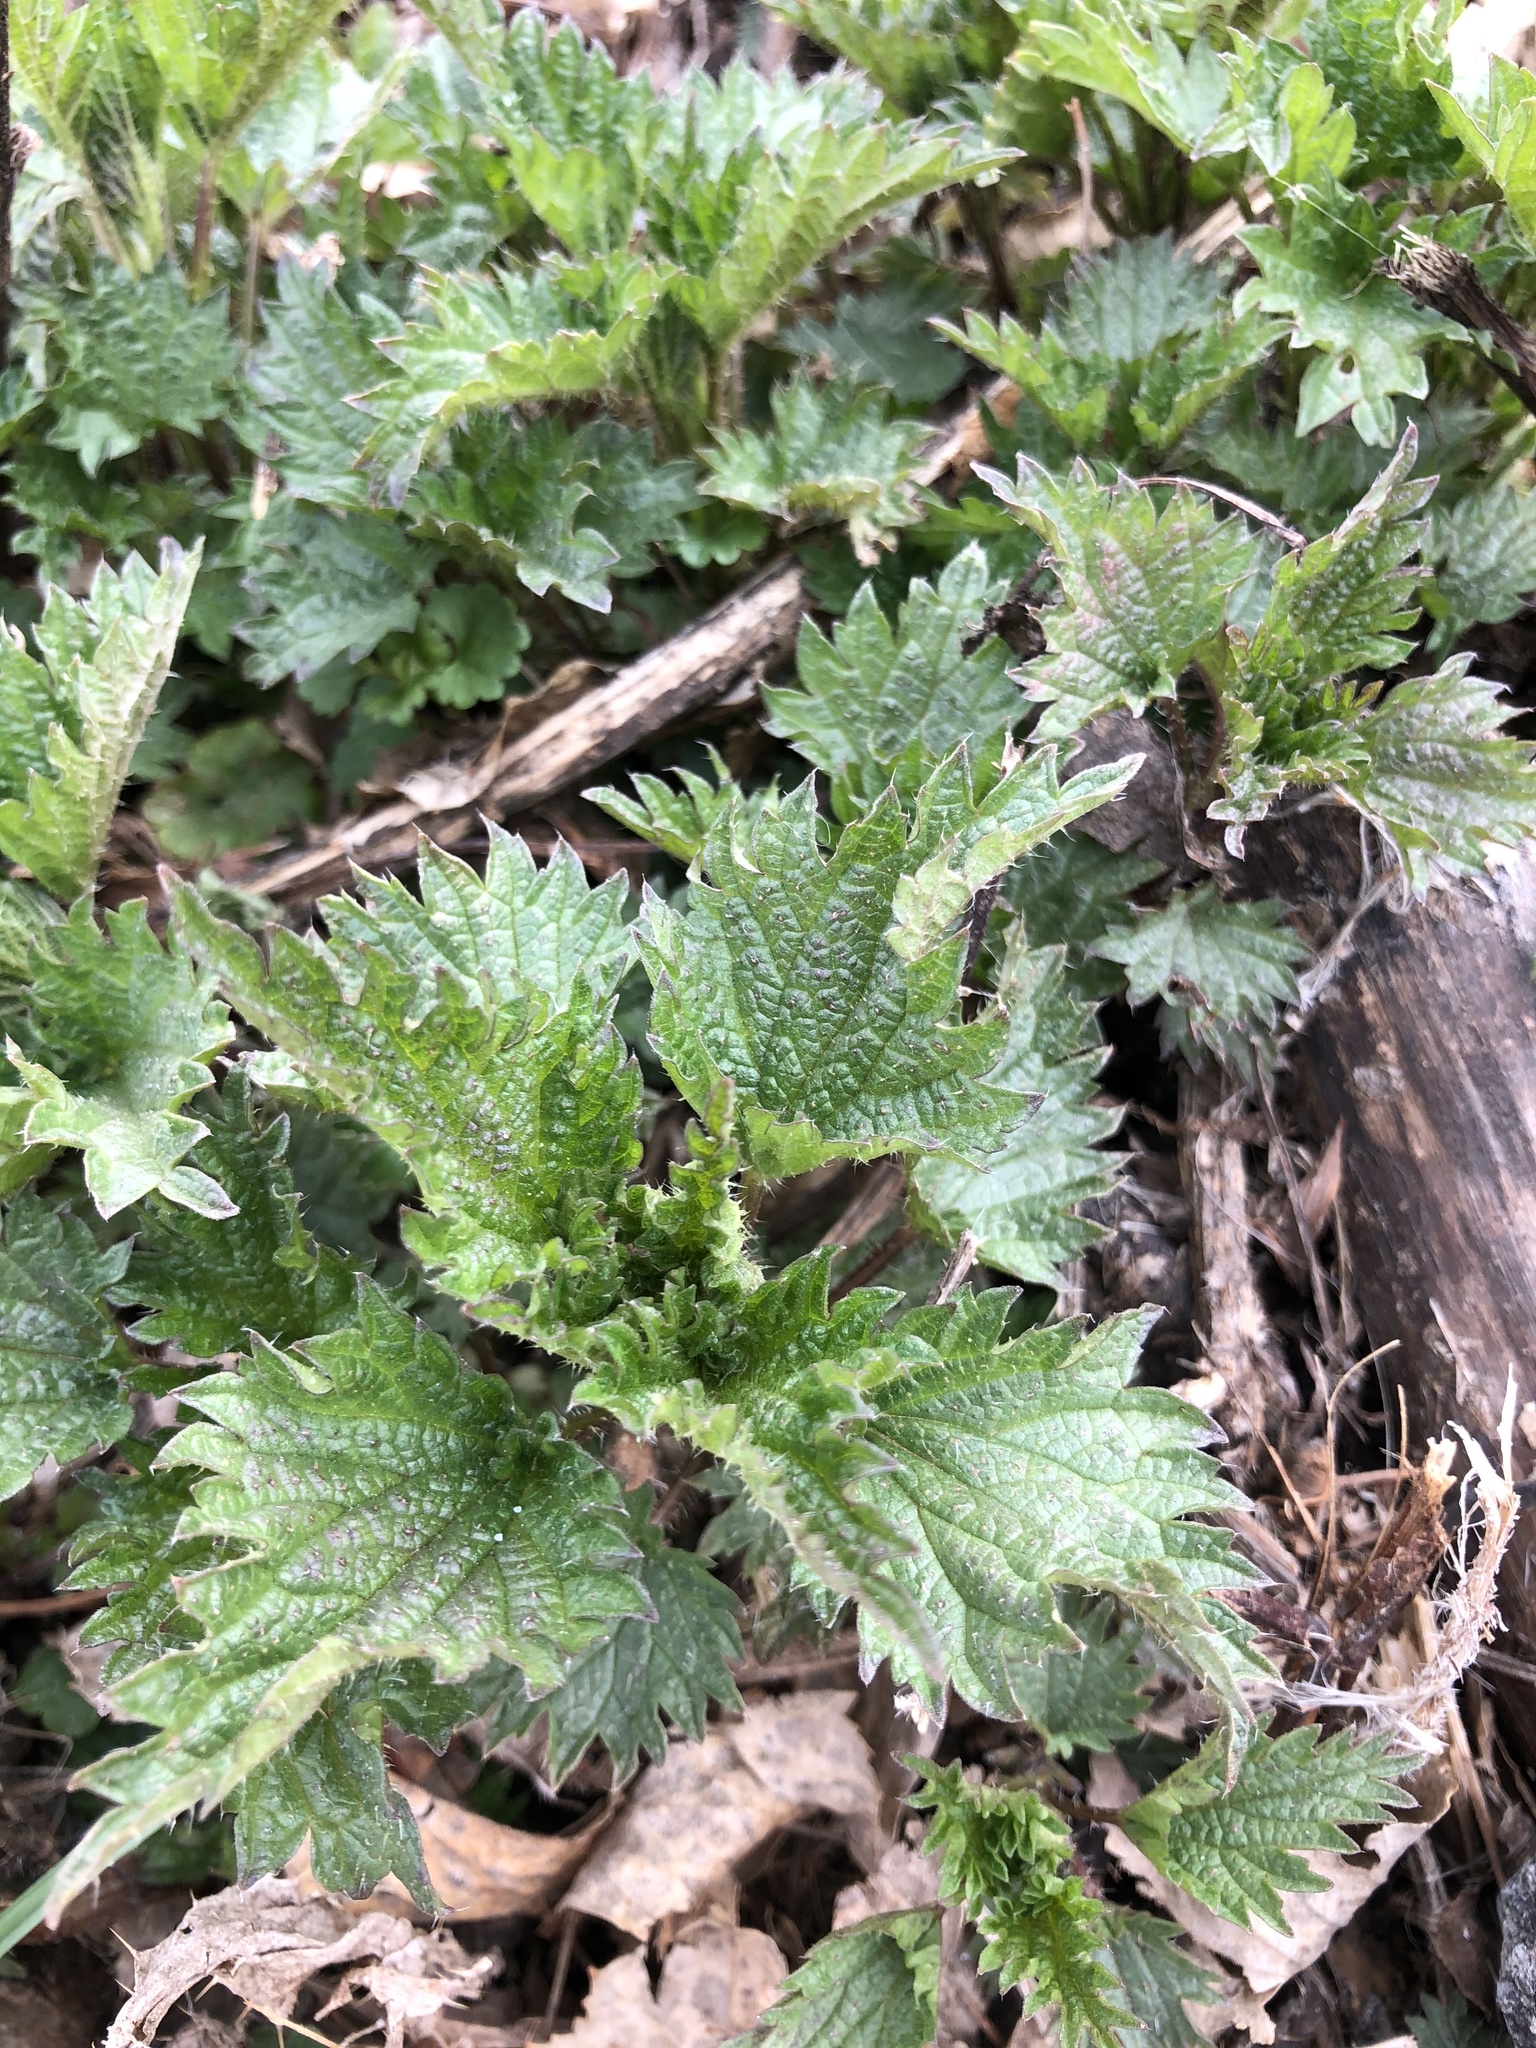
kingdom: Plantae
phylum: Tracheophyta
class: Magnoliopsida
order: Rosales
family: Urticaceae
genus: Urtica
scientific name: Urtica dioica
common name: Common nettle
